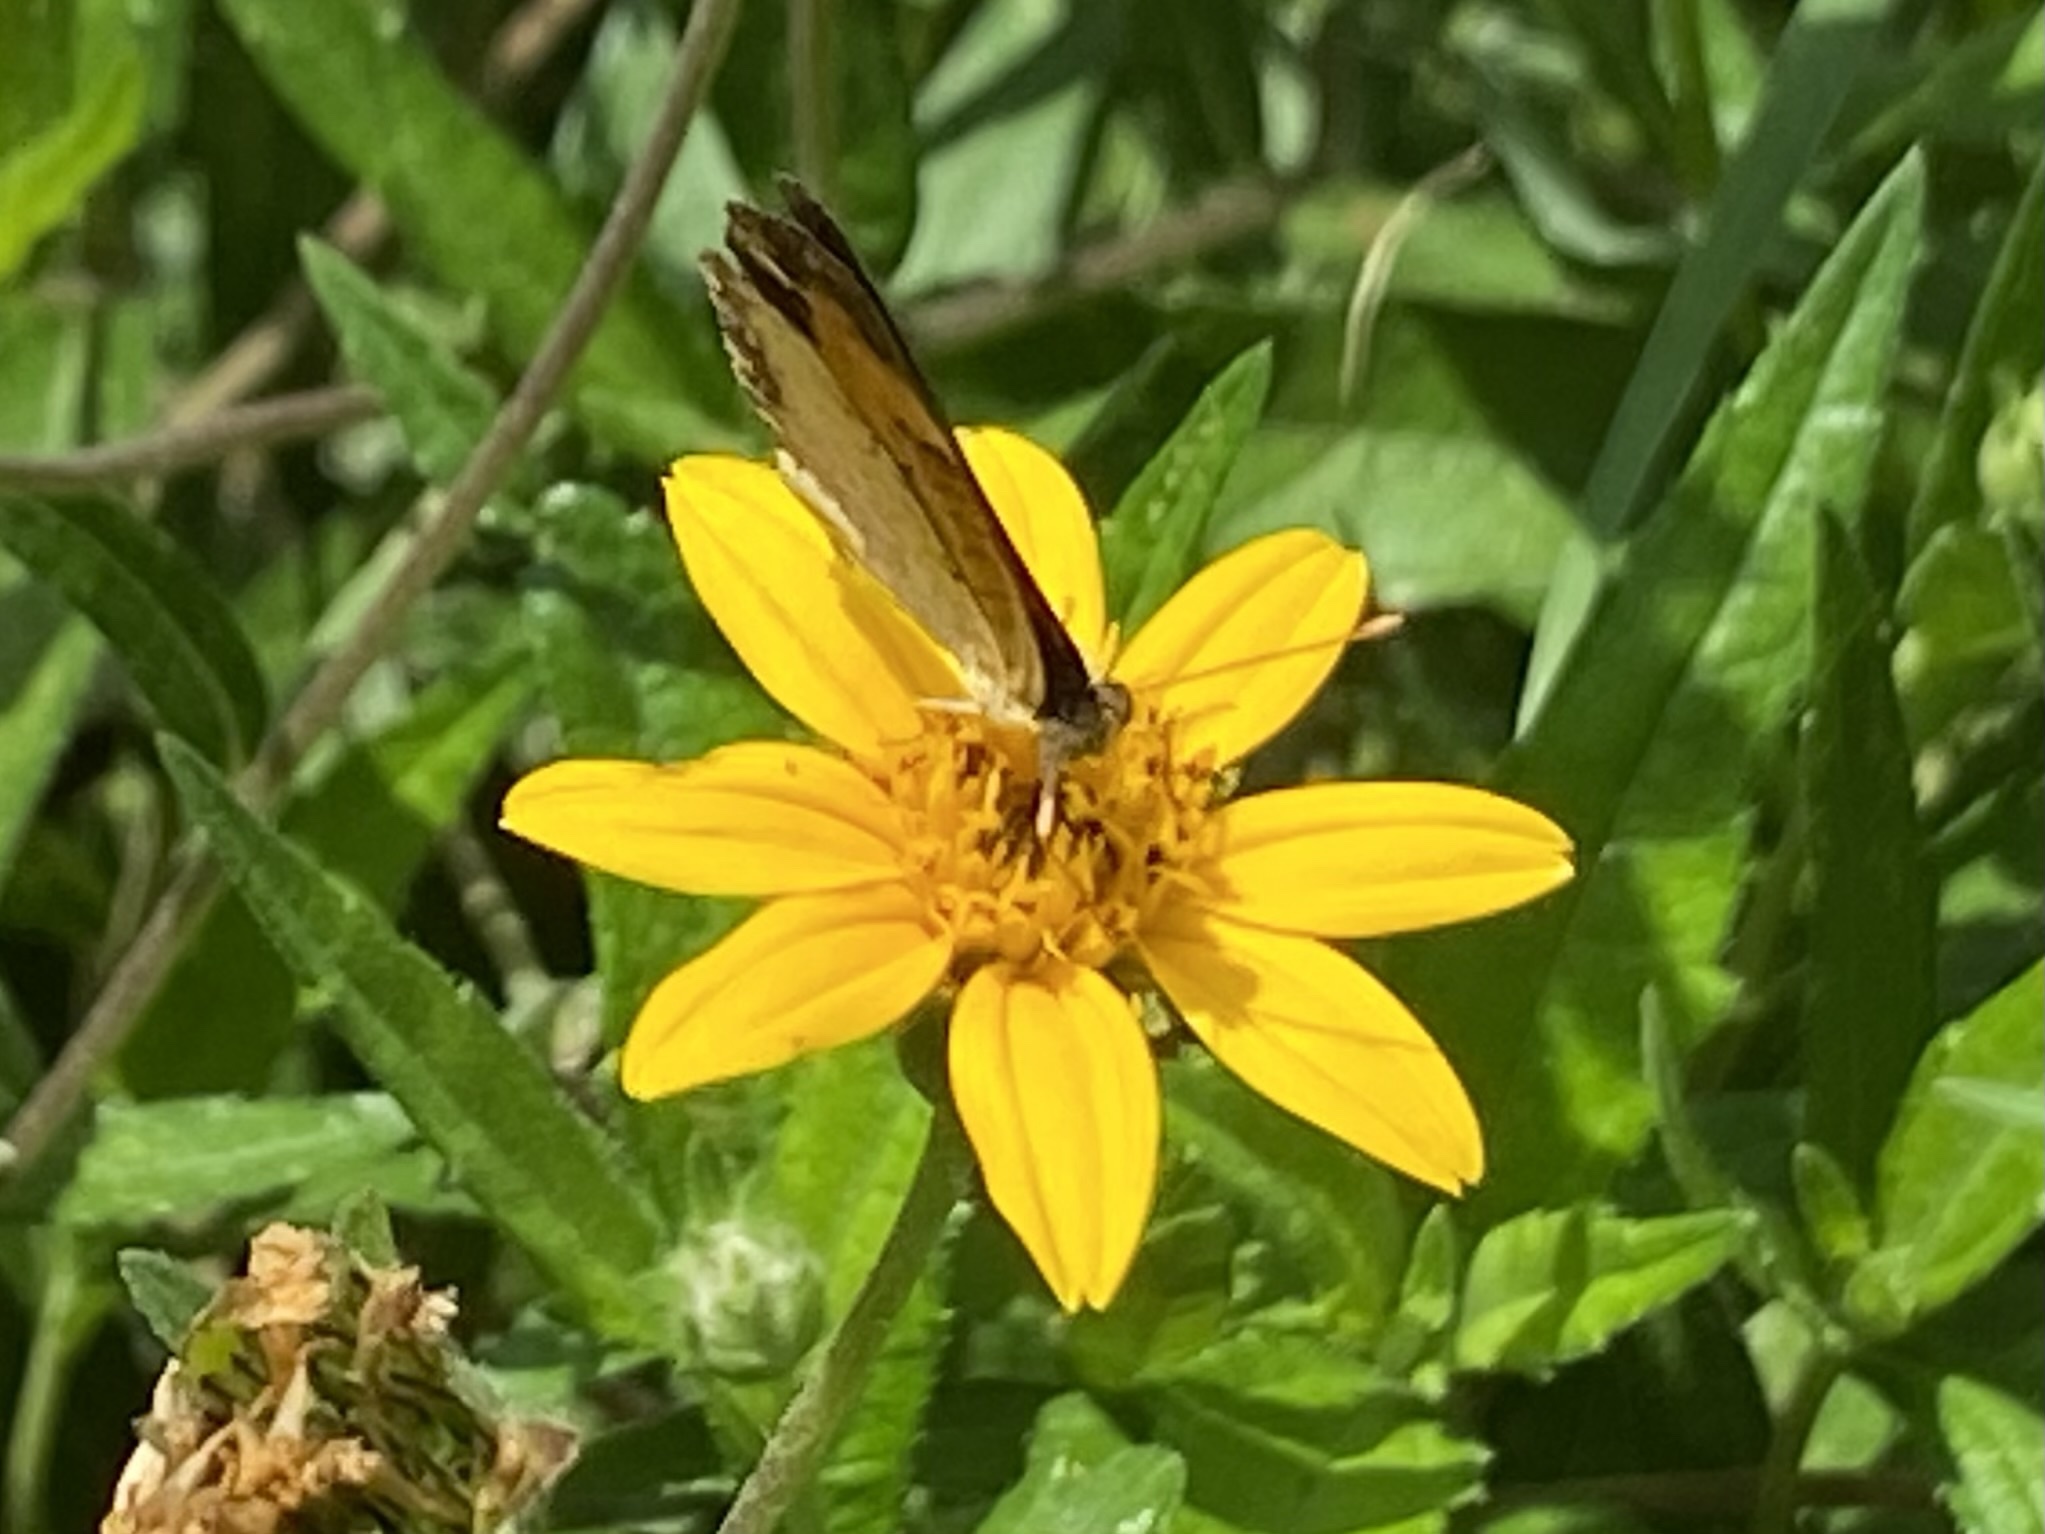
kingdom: Animalia
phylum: Arthropoda
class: Insecta
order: Lepidoptera
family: Nymphalidae
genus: Phyciodes
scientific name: Phyciodes tharos
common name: Pearl crescent
